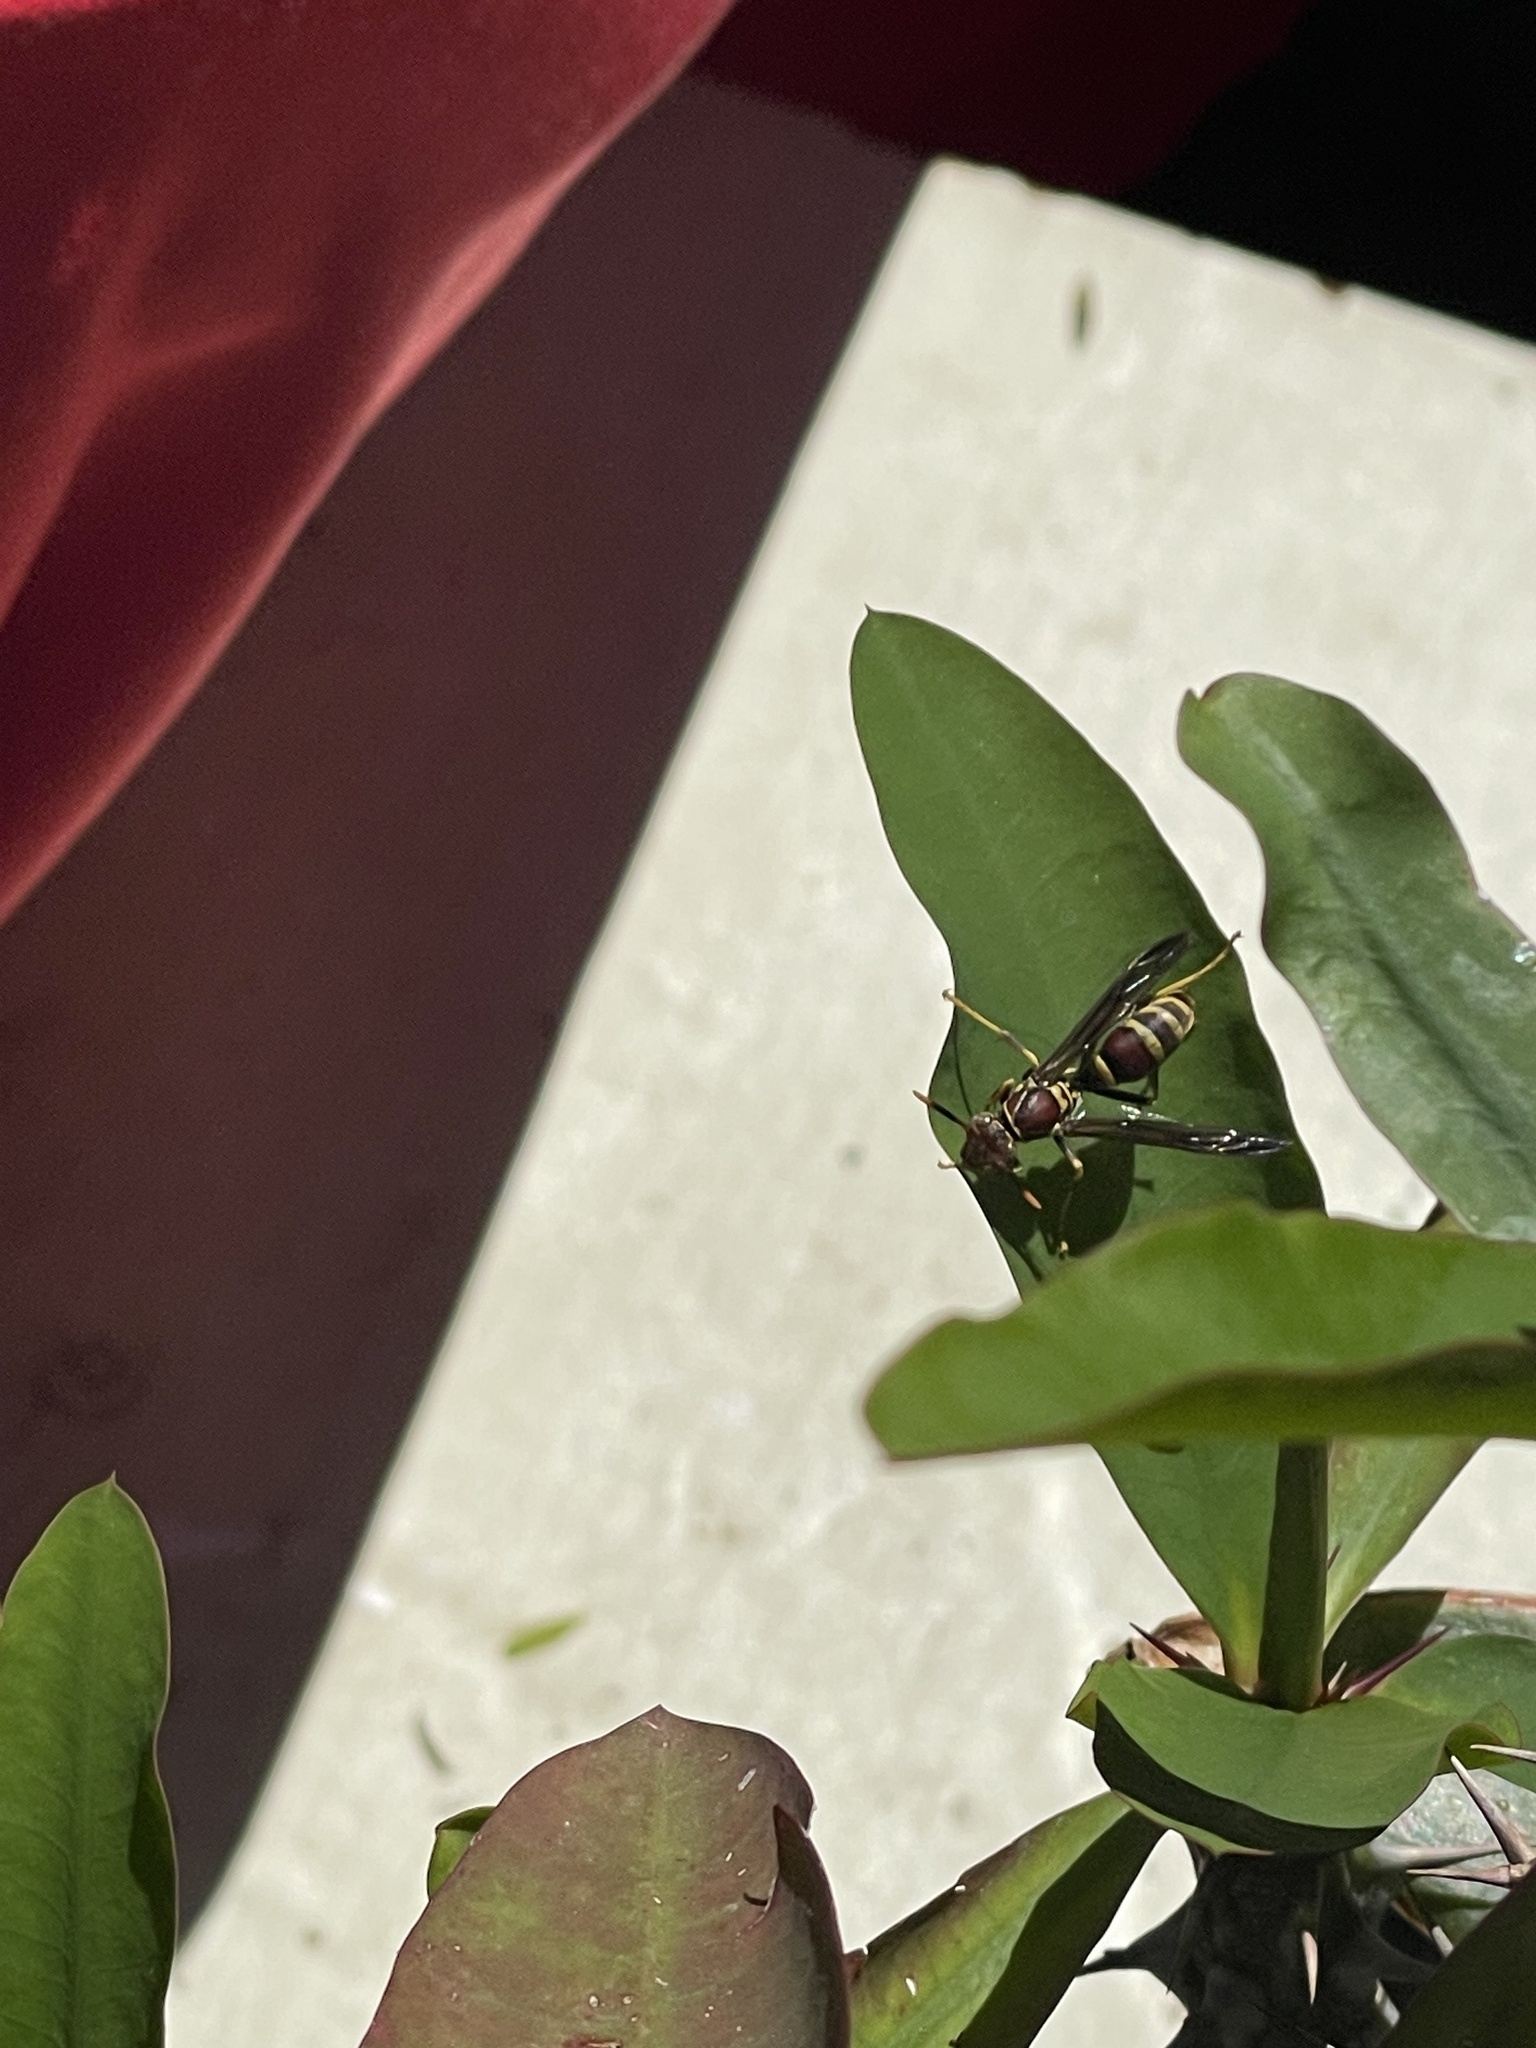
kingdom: Animalia
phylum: Arthropoda
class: Insecta
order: Hymenoptera
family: Eumenidae
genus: Polistes
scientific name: Polistes exclamans
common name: Paper wasp
